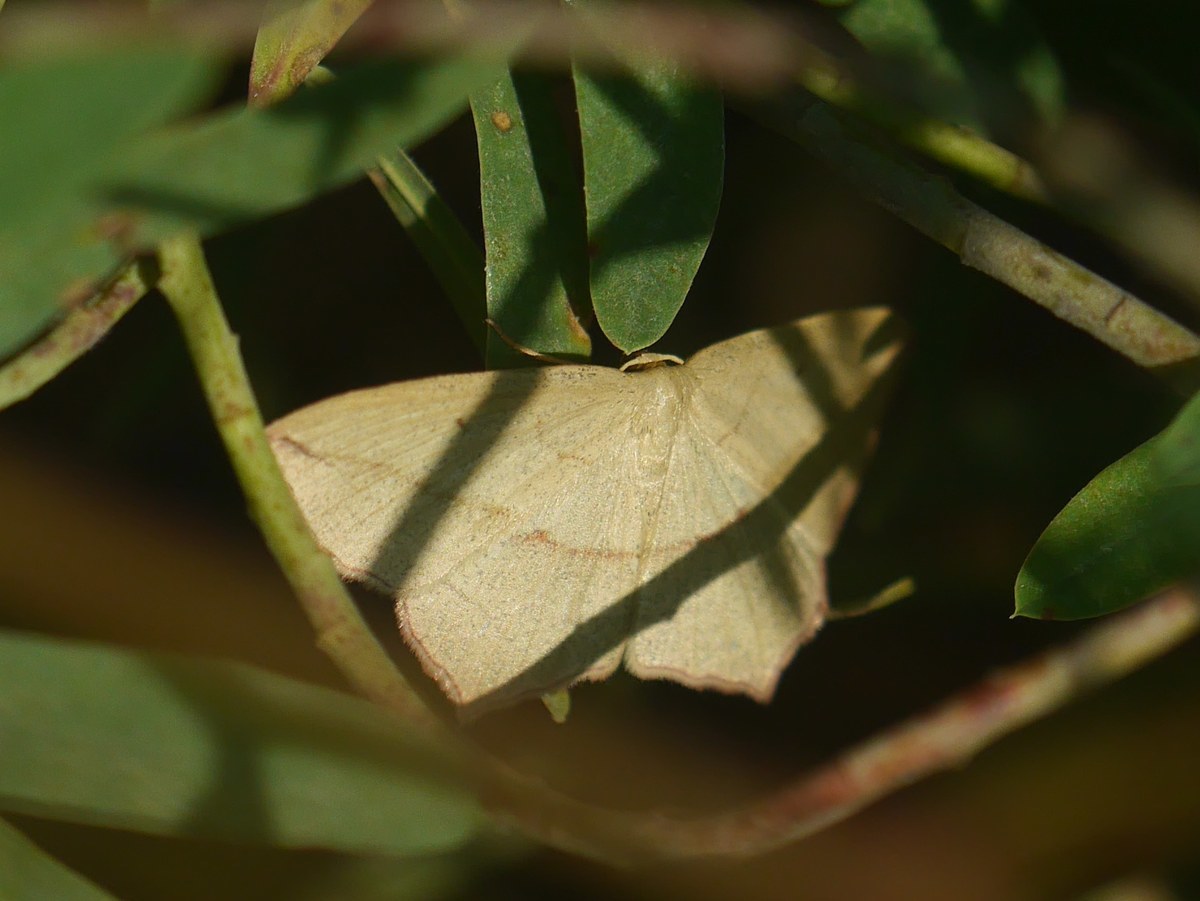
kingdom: Animalia
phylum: Arthropoda
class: Insecta
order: Lepidoptera
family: Geometridae
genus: Timandra
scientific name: Timandra comae
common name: Blood-vein
